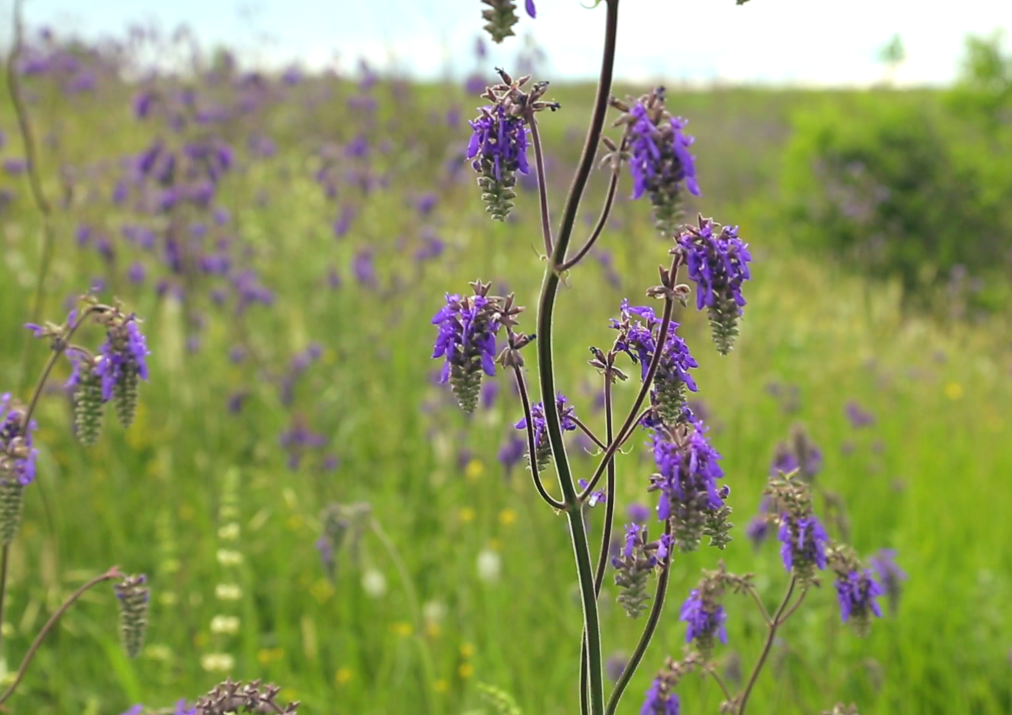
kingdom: Plantae
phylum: Tracheophyta
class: Magnoliopsida
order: Lamiales
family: Lamiaceae
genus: Salvia
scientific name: Salvia nutans
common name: Nodding sage
